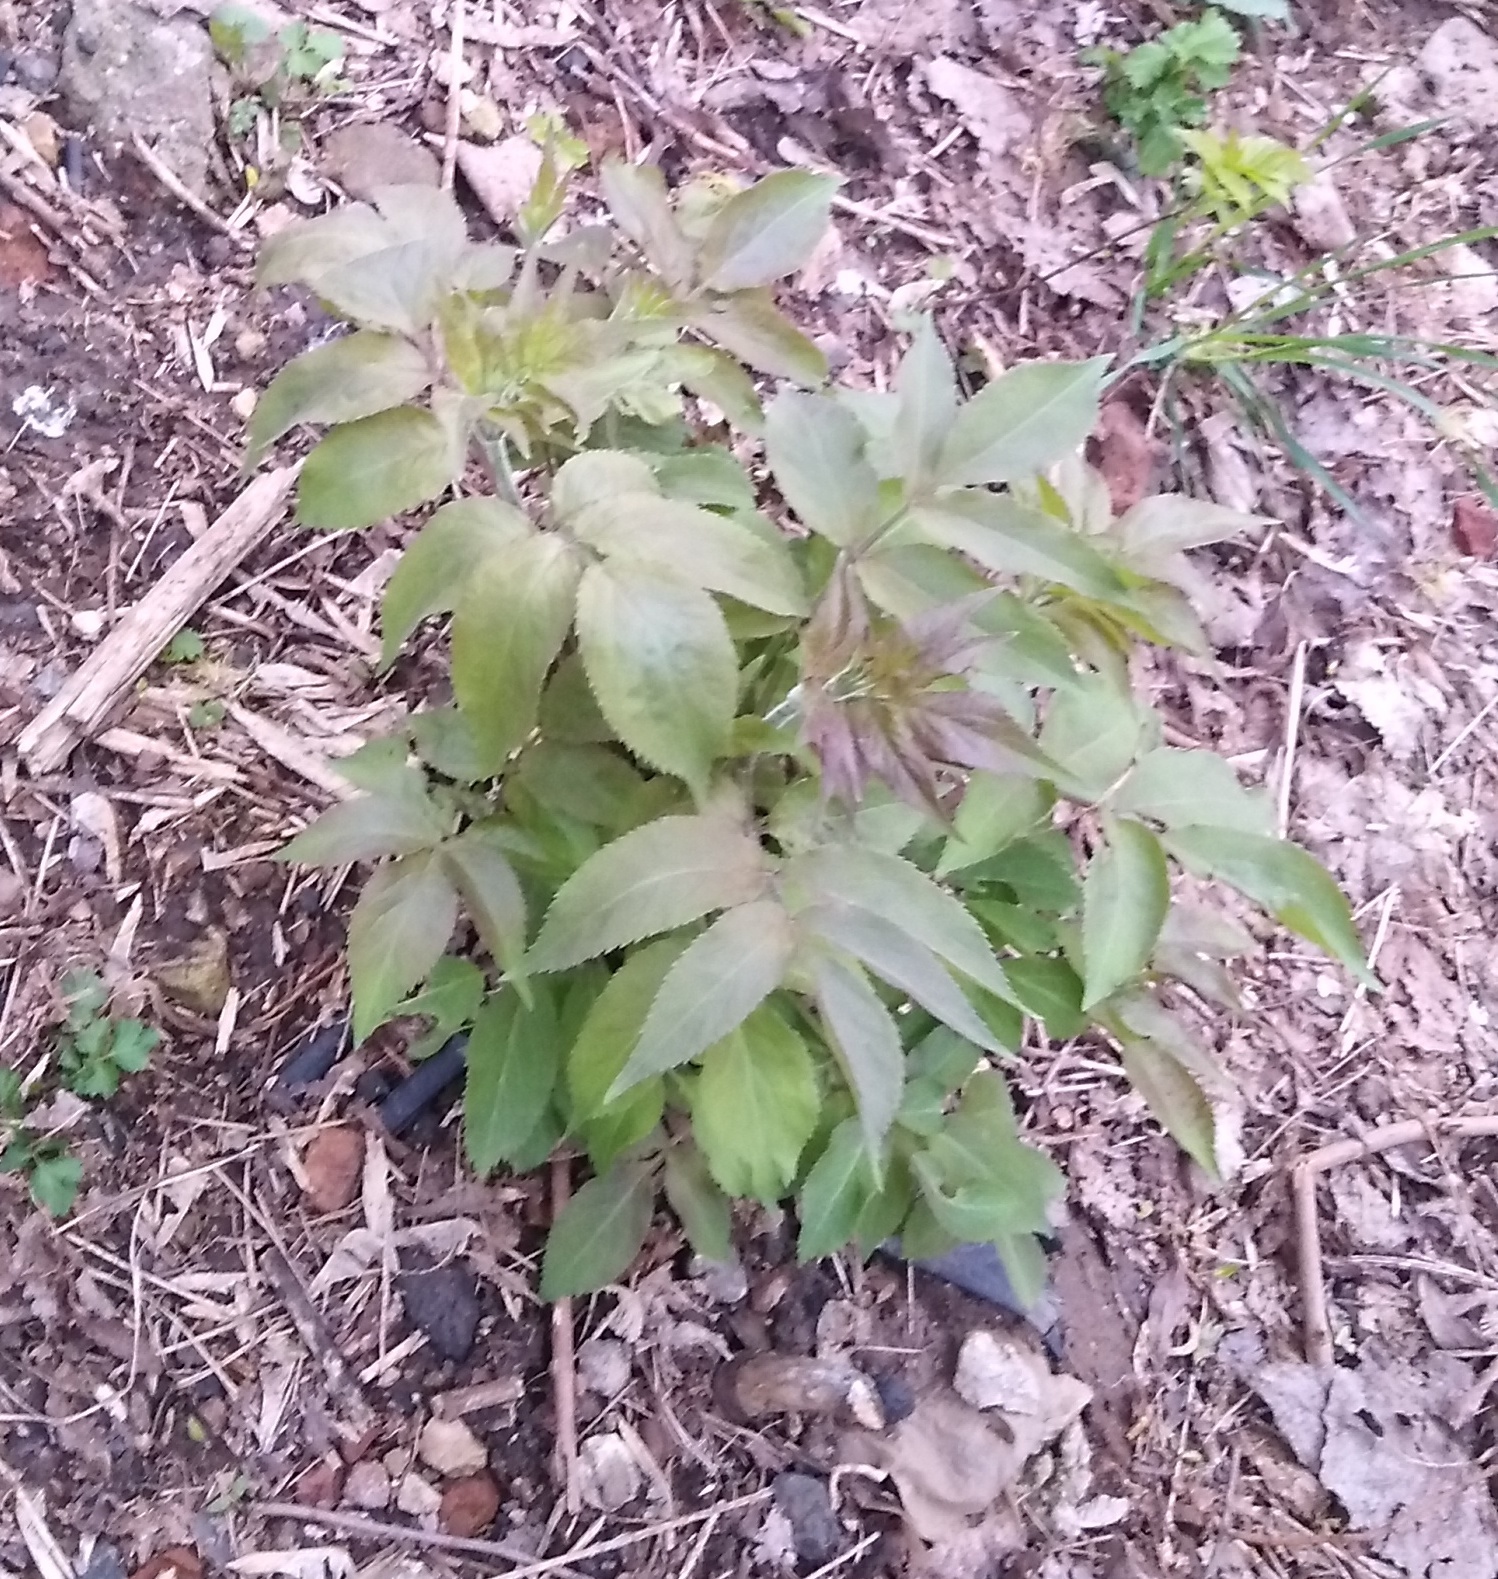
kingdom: Plantae
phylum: Tracheophyta
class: Magnoliopsida
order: Dipsacales
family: Viburnaceae
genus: Sambucus
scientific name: Sambucus racemosa
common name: Red-berried elder
